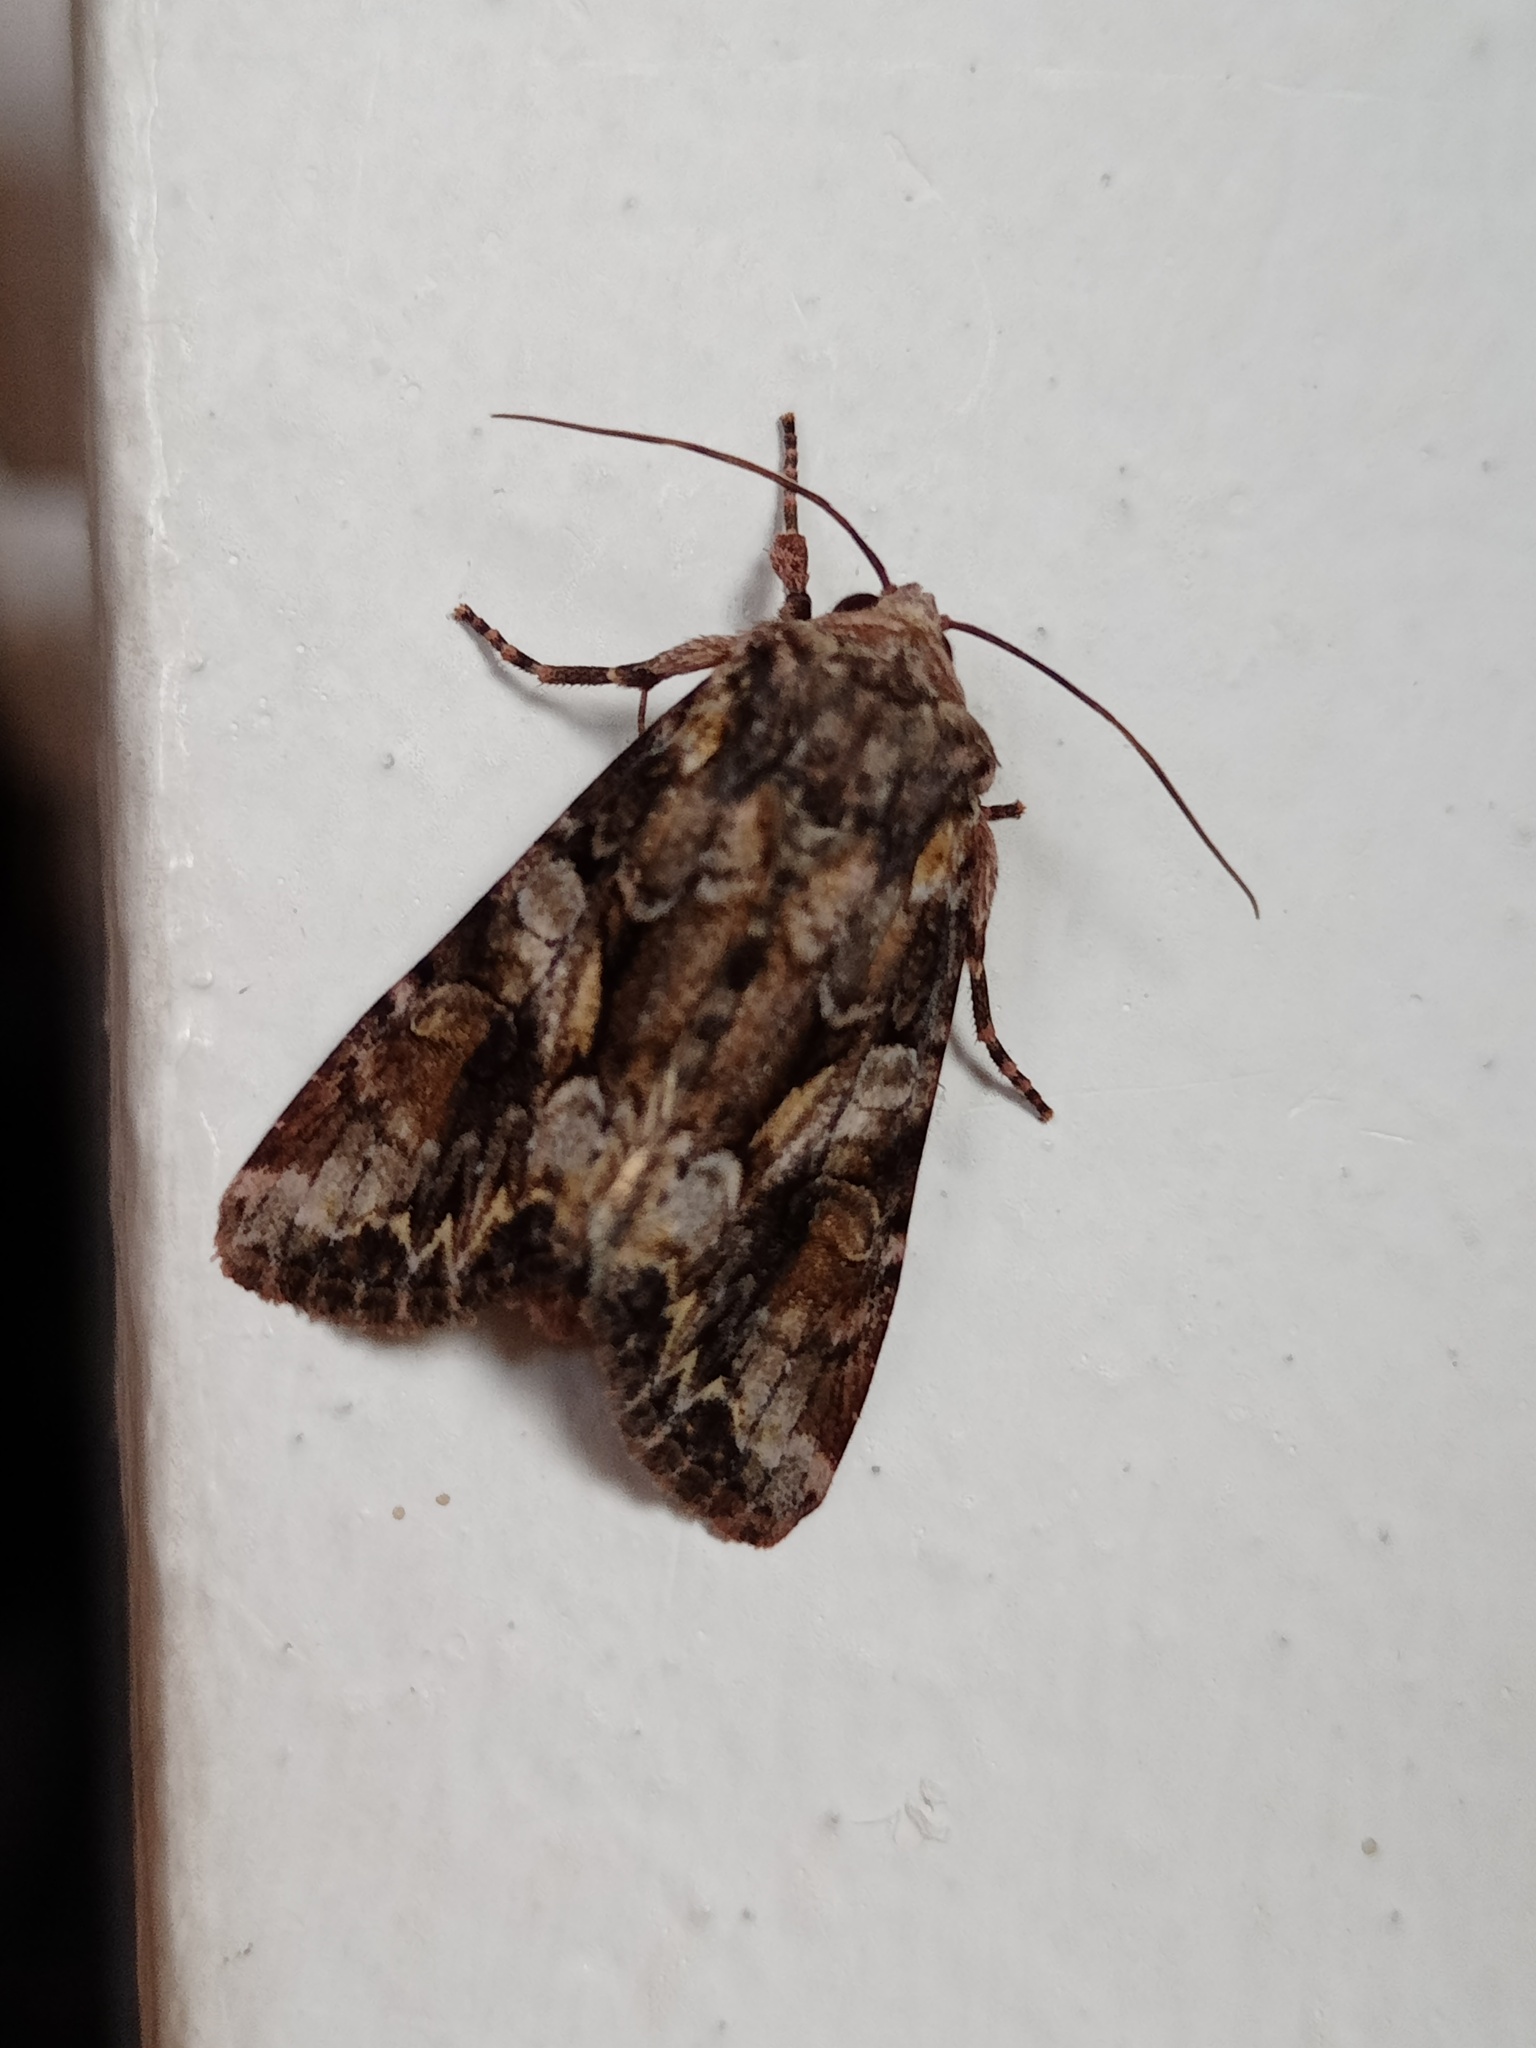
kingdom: Animalia
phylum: Arthropoda
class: Insecta
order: Lepidoptera
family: Noctuidae
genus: Lacanobia
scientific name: Lacanobia contigua
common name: Beautiful brocade
